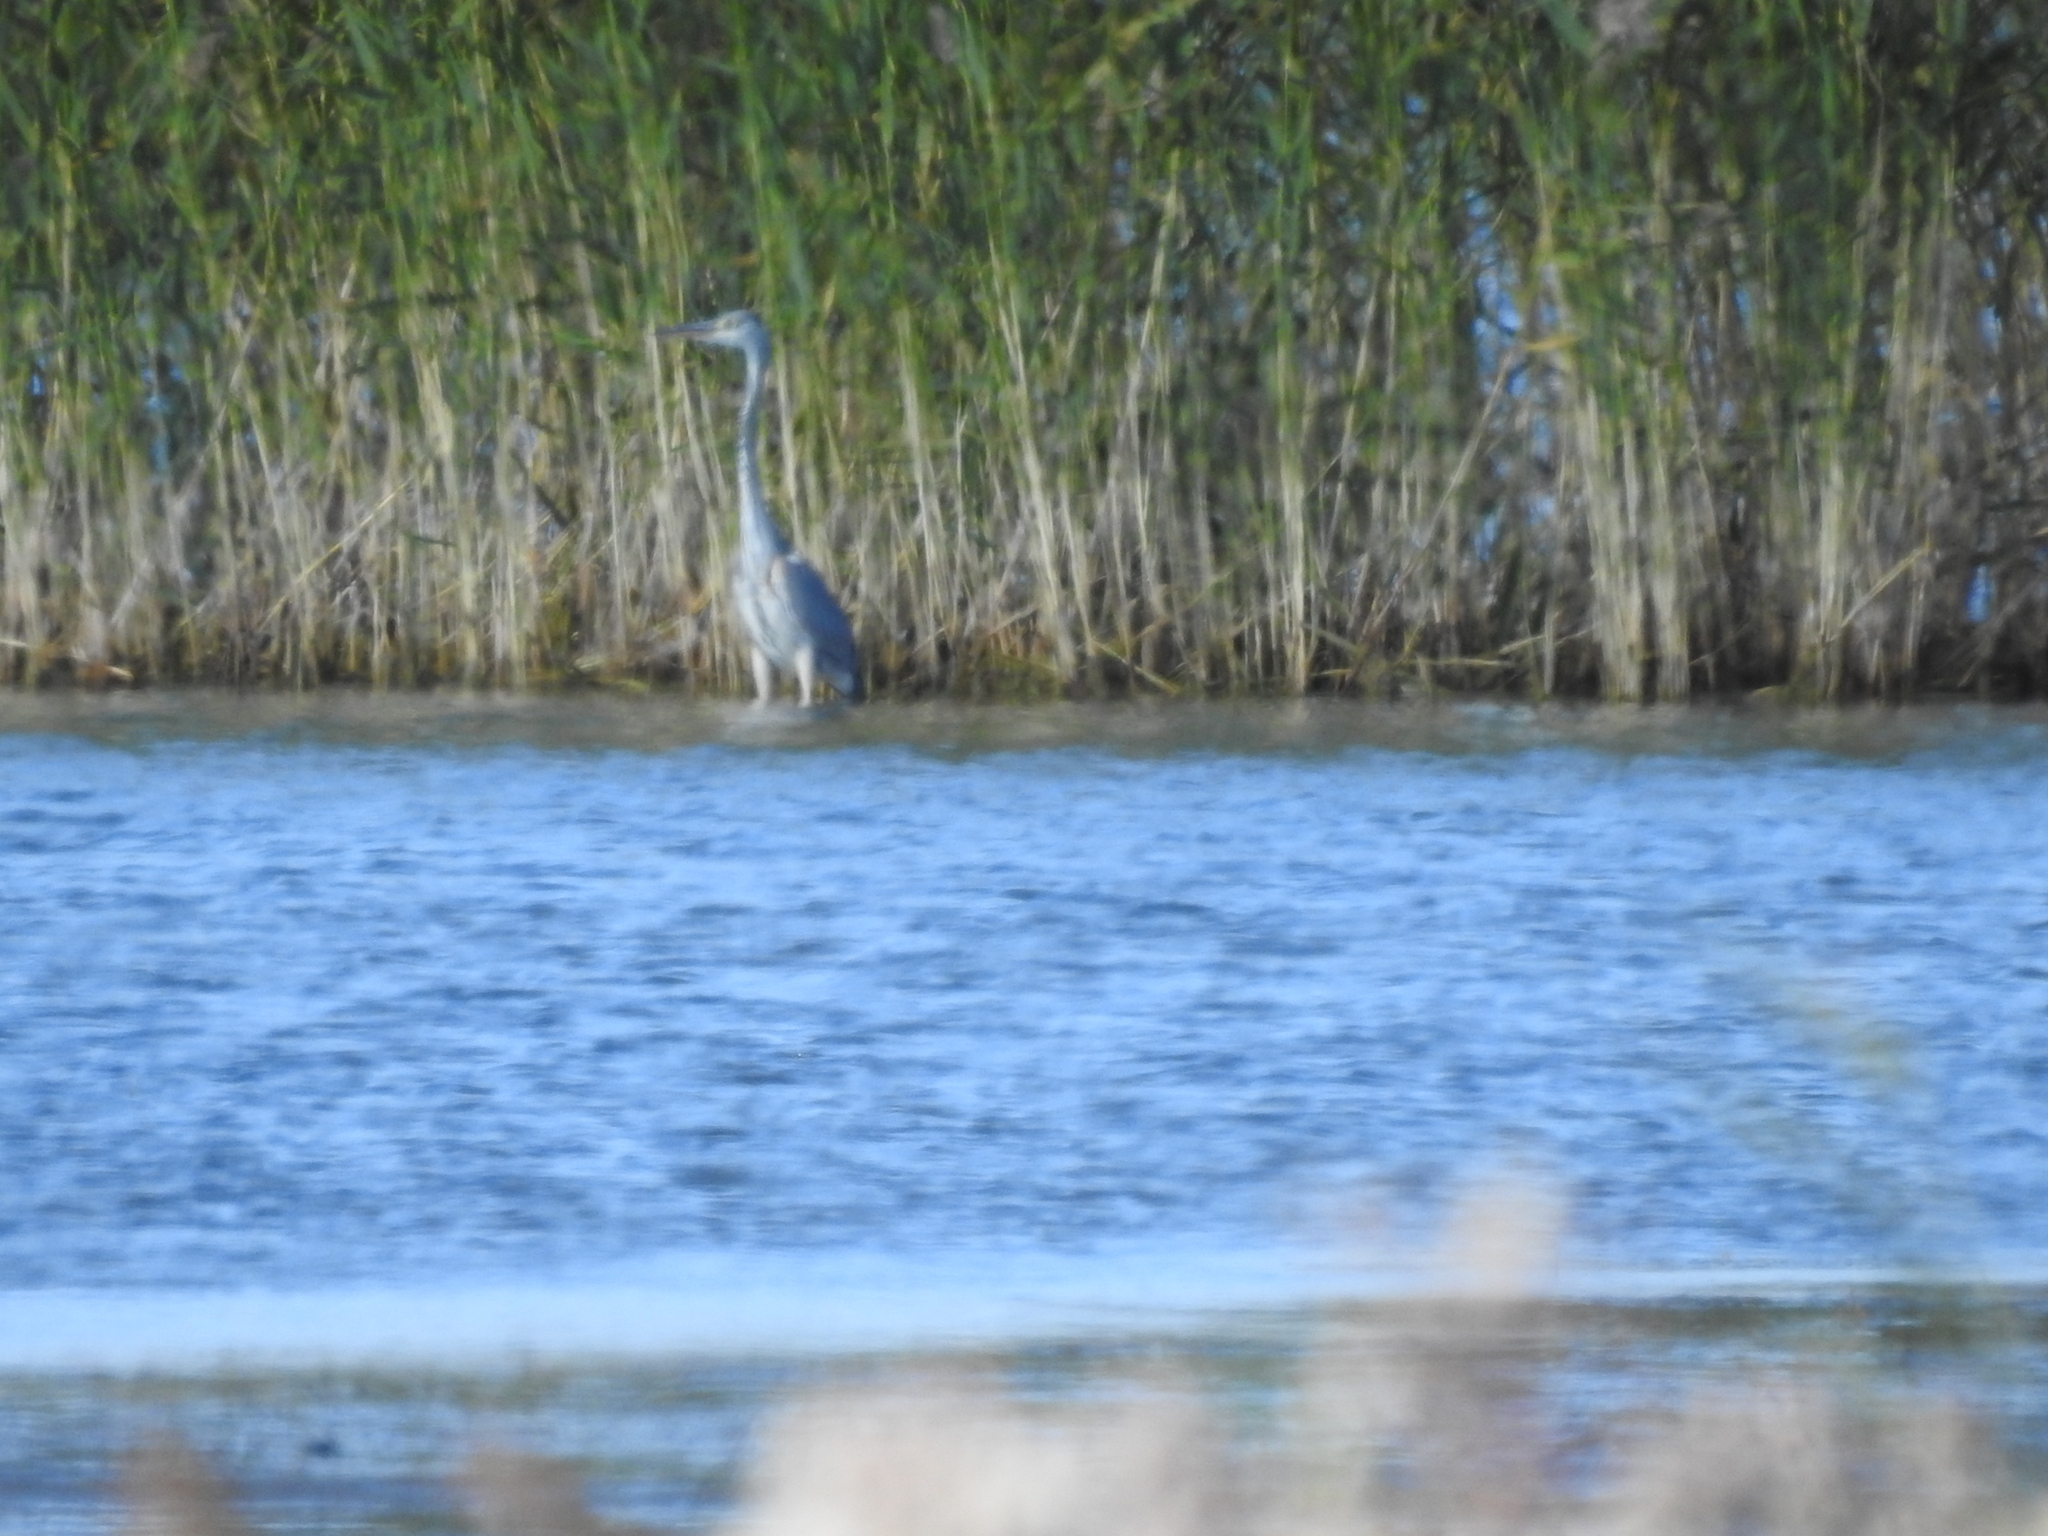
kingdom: Animalia
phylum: Chordata
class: Aves
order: Pelecaniformes
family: Ardeidae
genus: Ardea
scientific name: Ardea cinerea
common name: Grey heron
